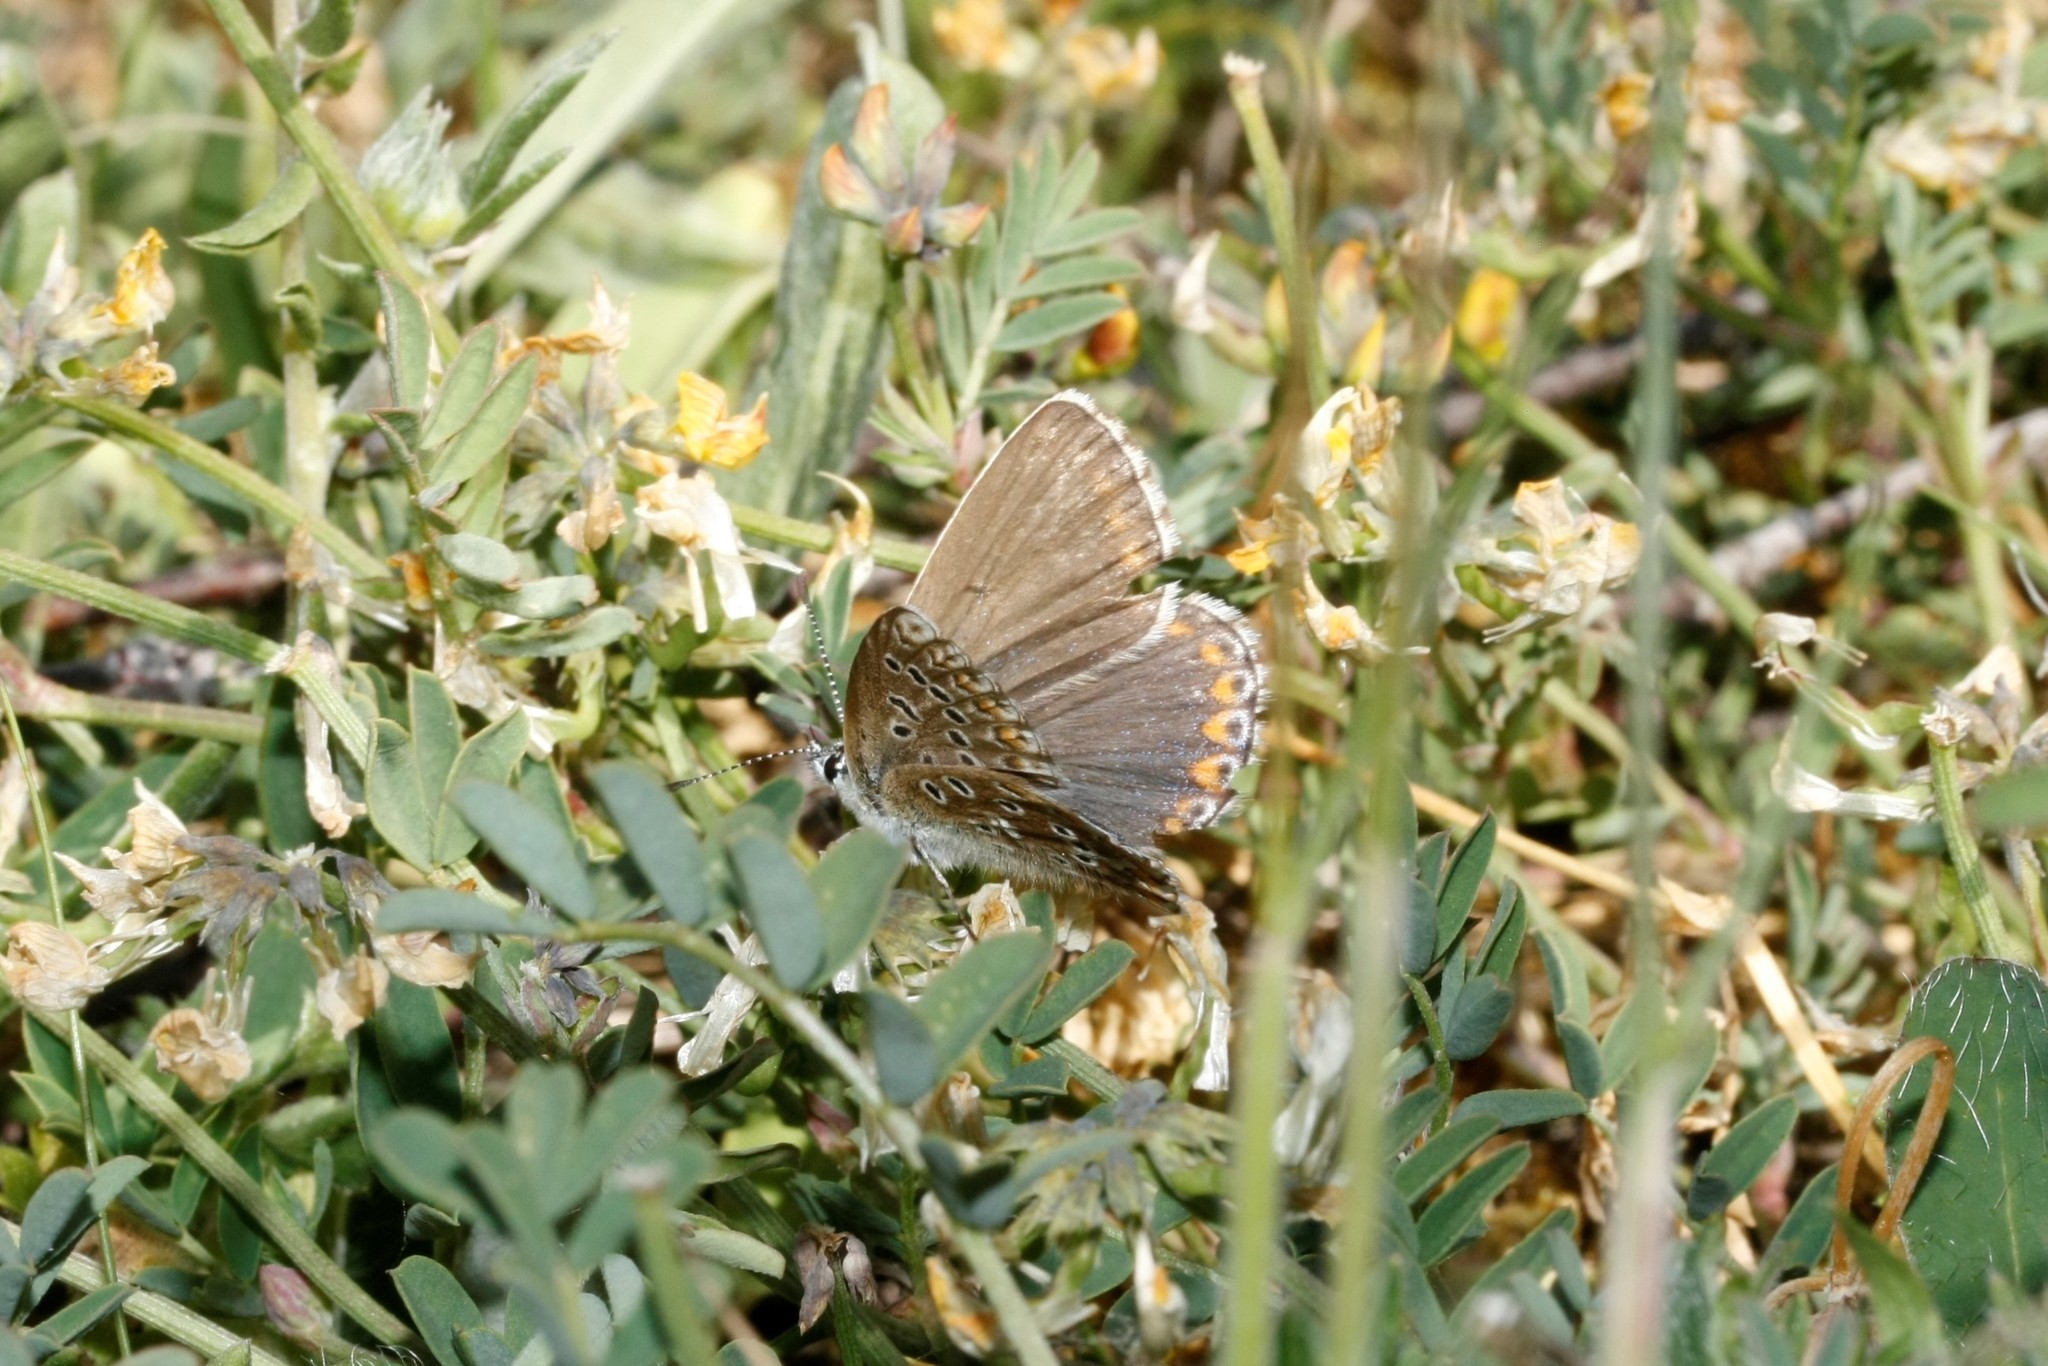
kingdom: Animalia
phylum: Arthropoda
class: Insecta
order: Lepidoptera
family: Lycaenidae
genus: Lysandra
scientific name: Lysandra bellargus
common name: Adonis blue
